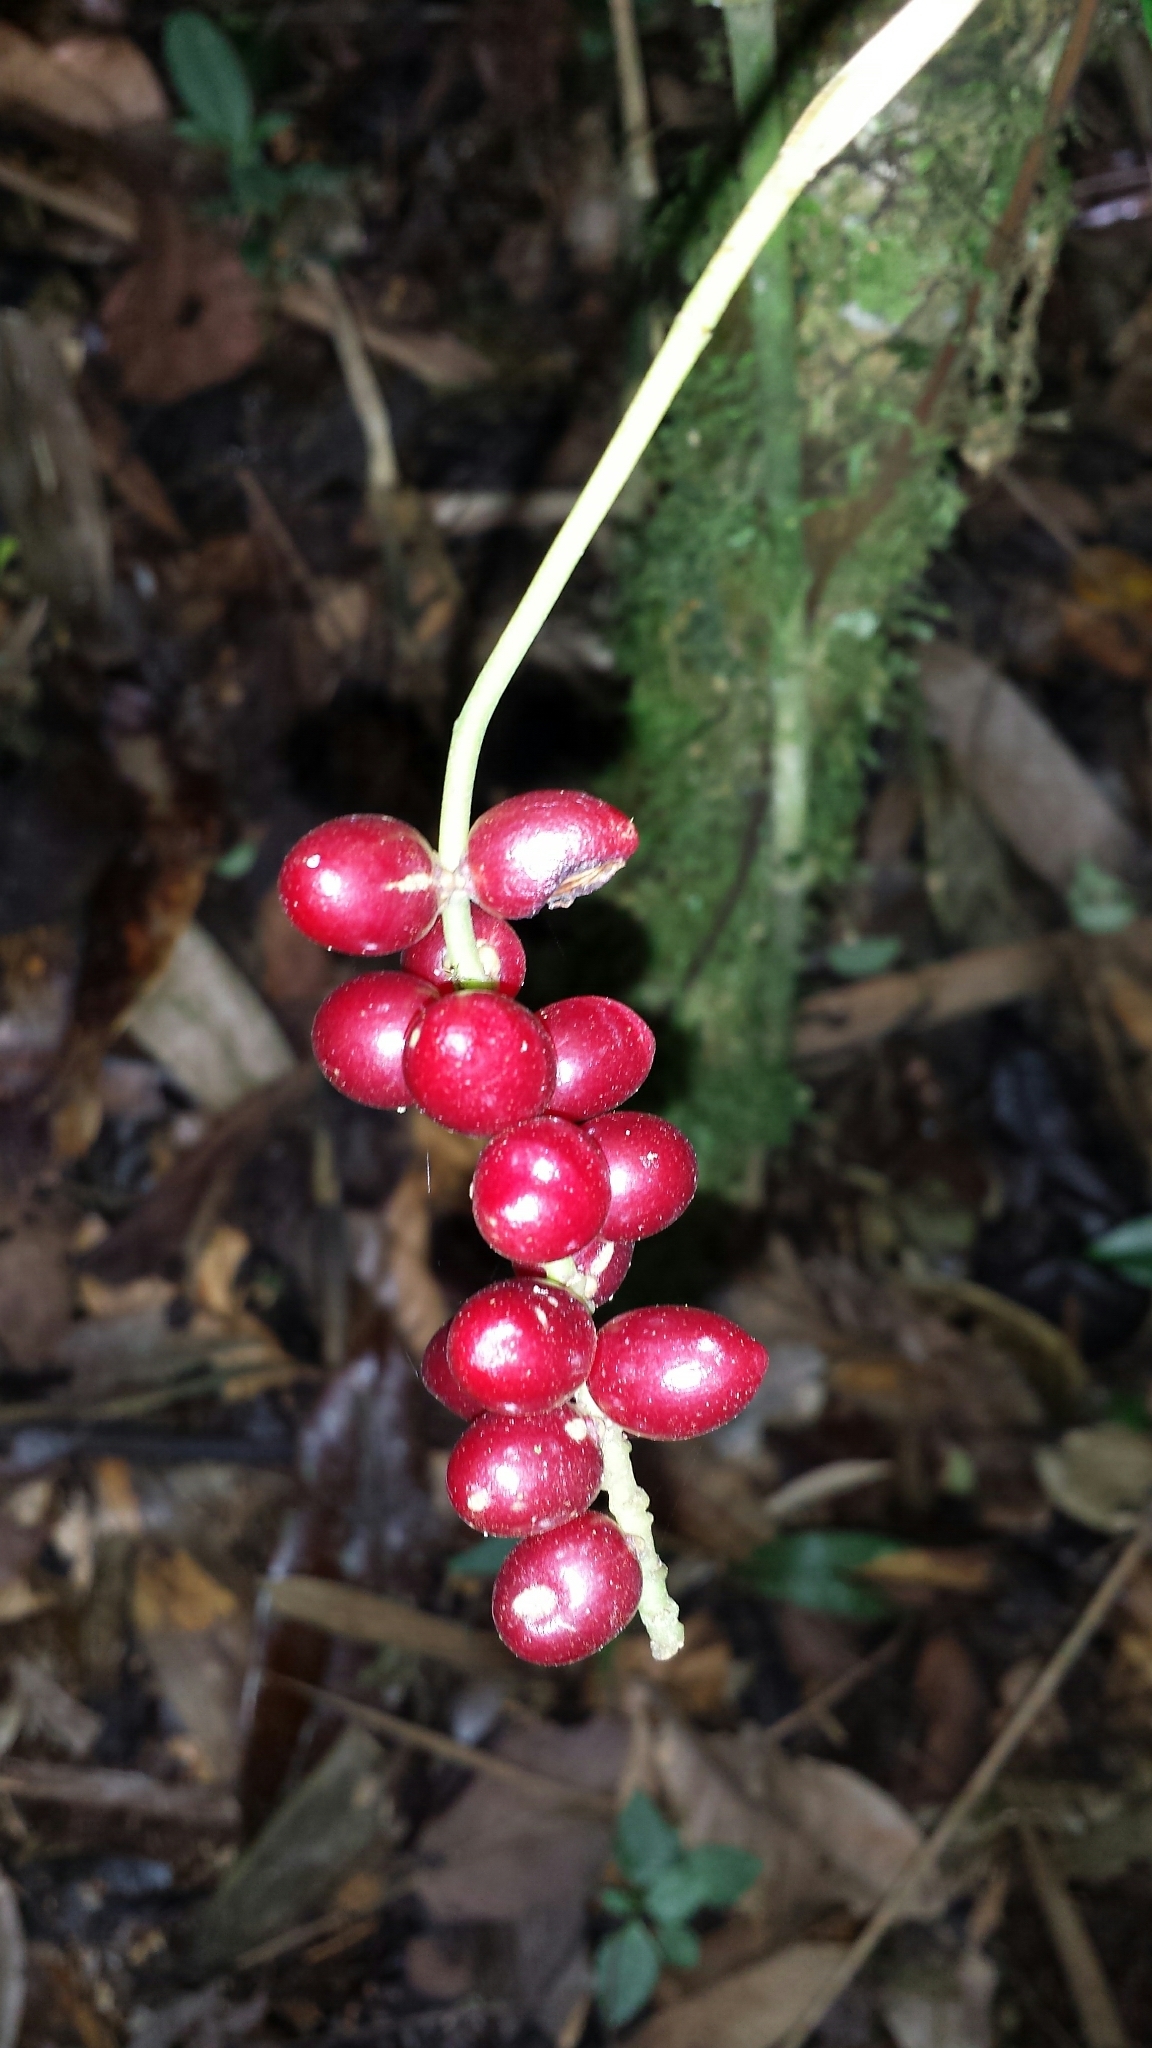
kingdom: Plantae
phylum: Tracheophyta
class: Liliopsida
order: Arecales
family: Arecaceae
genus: Dypsis
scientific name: Dypsis catatiana
